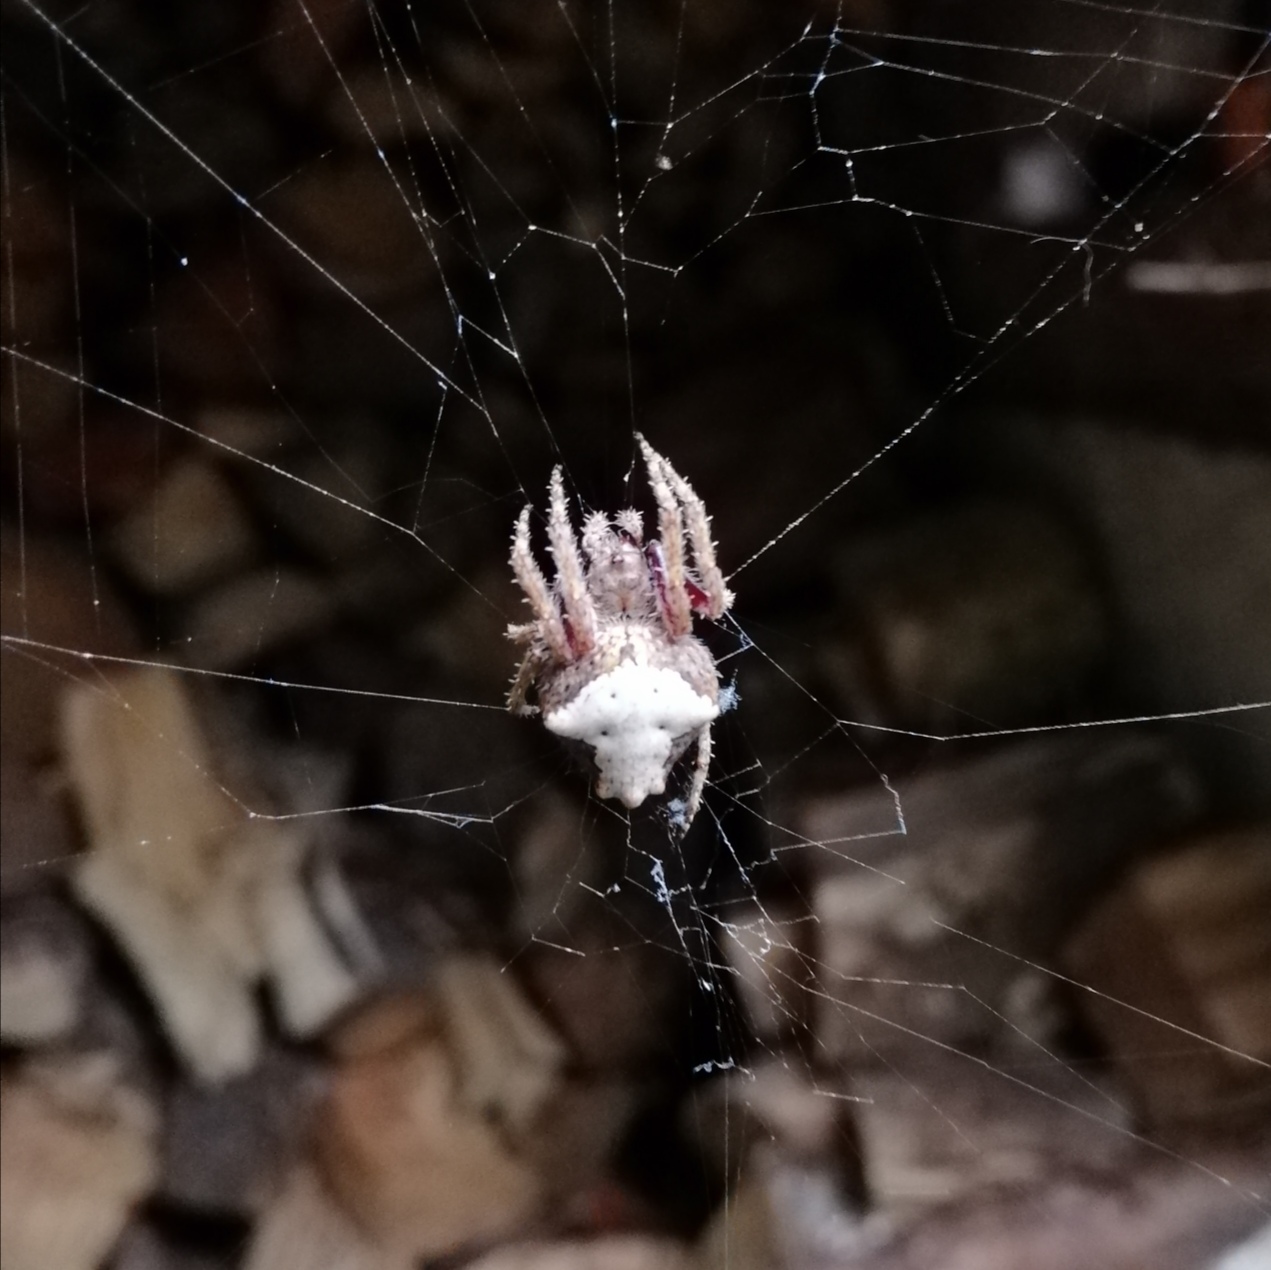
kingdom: Animalia
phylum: Arthropoda
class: Arachnida
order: Araneae
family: Araneidae
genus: Eriophora
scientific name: Eriophora pustulosa
